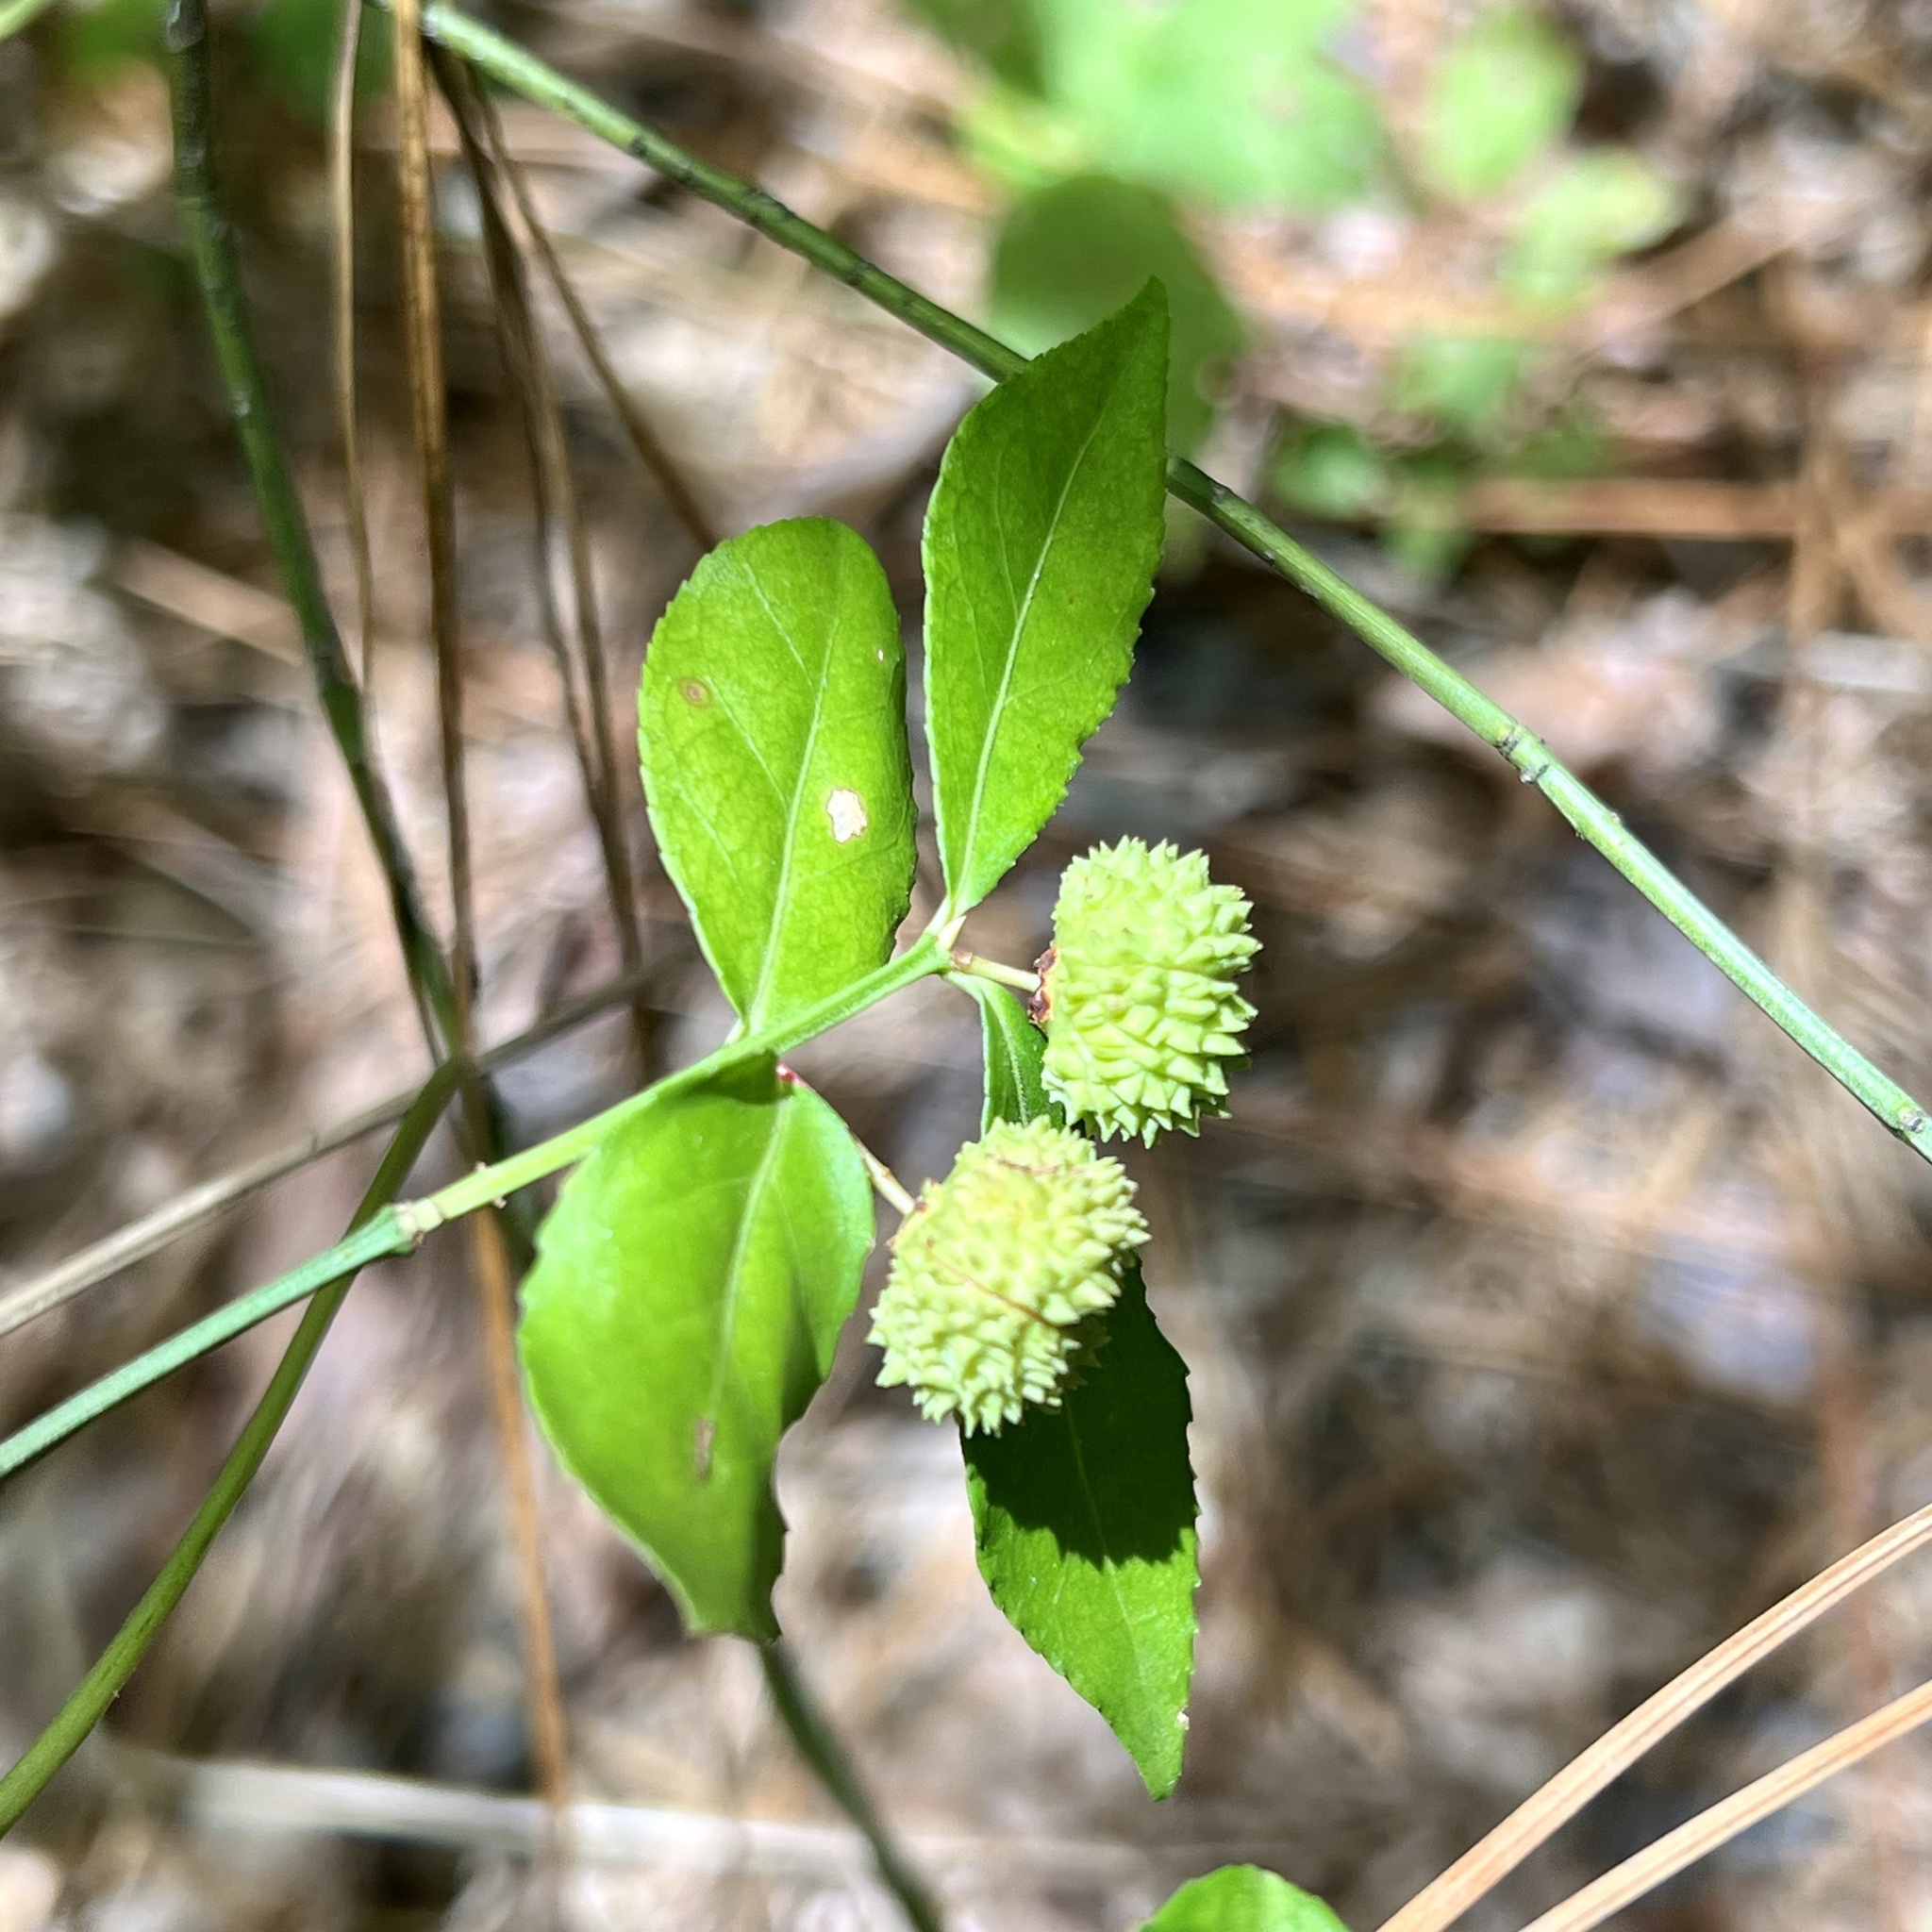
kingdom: Plantae
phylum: Tracheophyta
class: Magnoliopsida
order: Celastrales
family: Celastraceae
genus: Euonymus
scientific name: Euonymus americanus
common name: Bursting-heart
